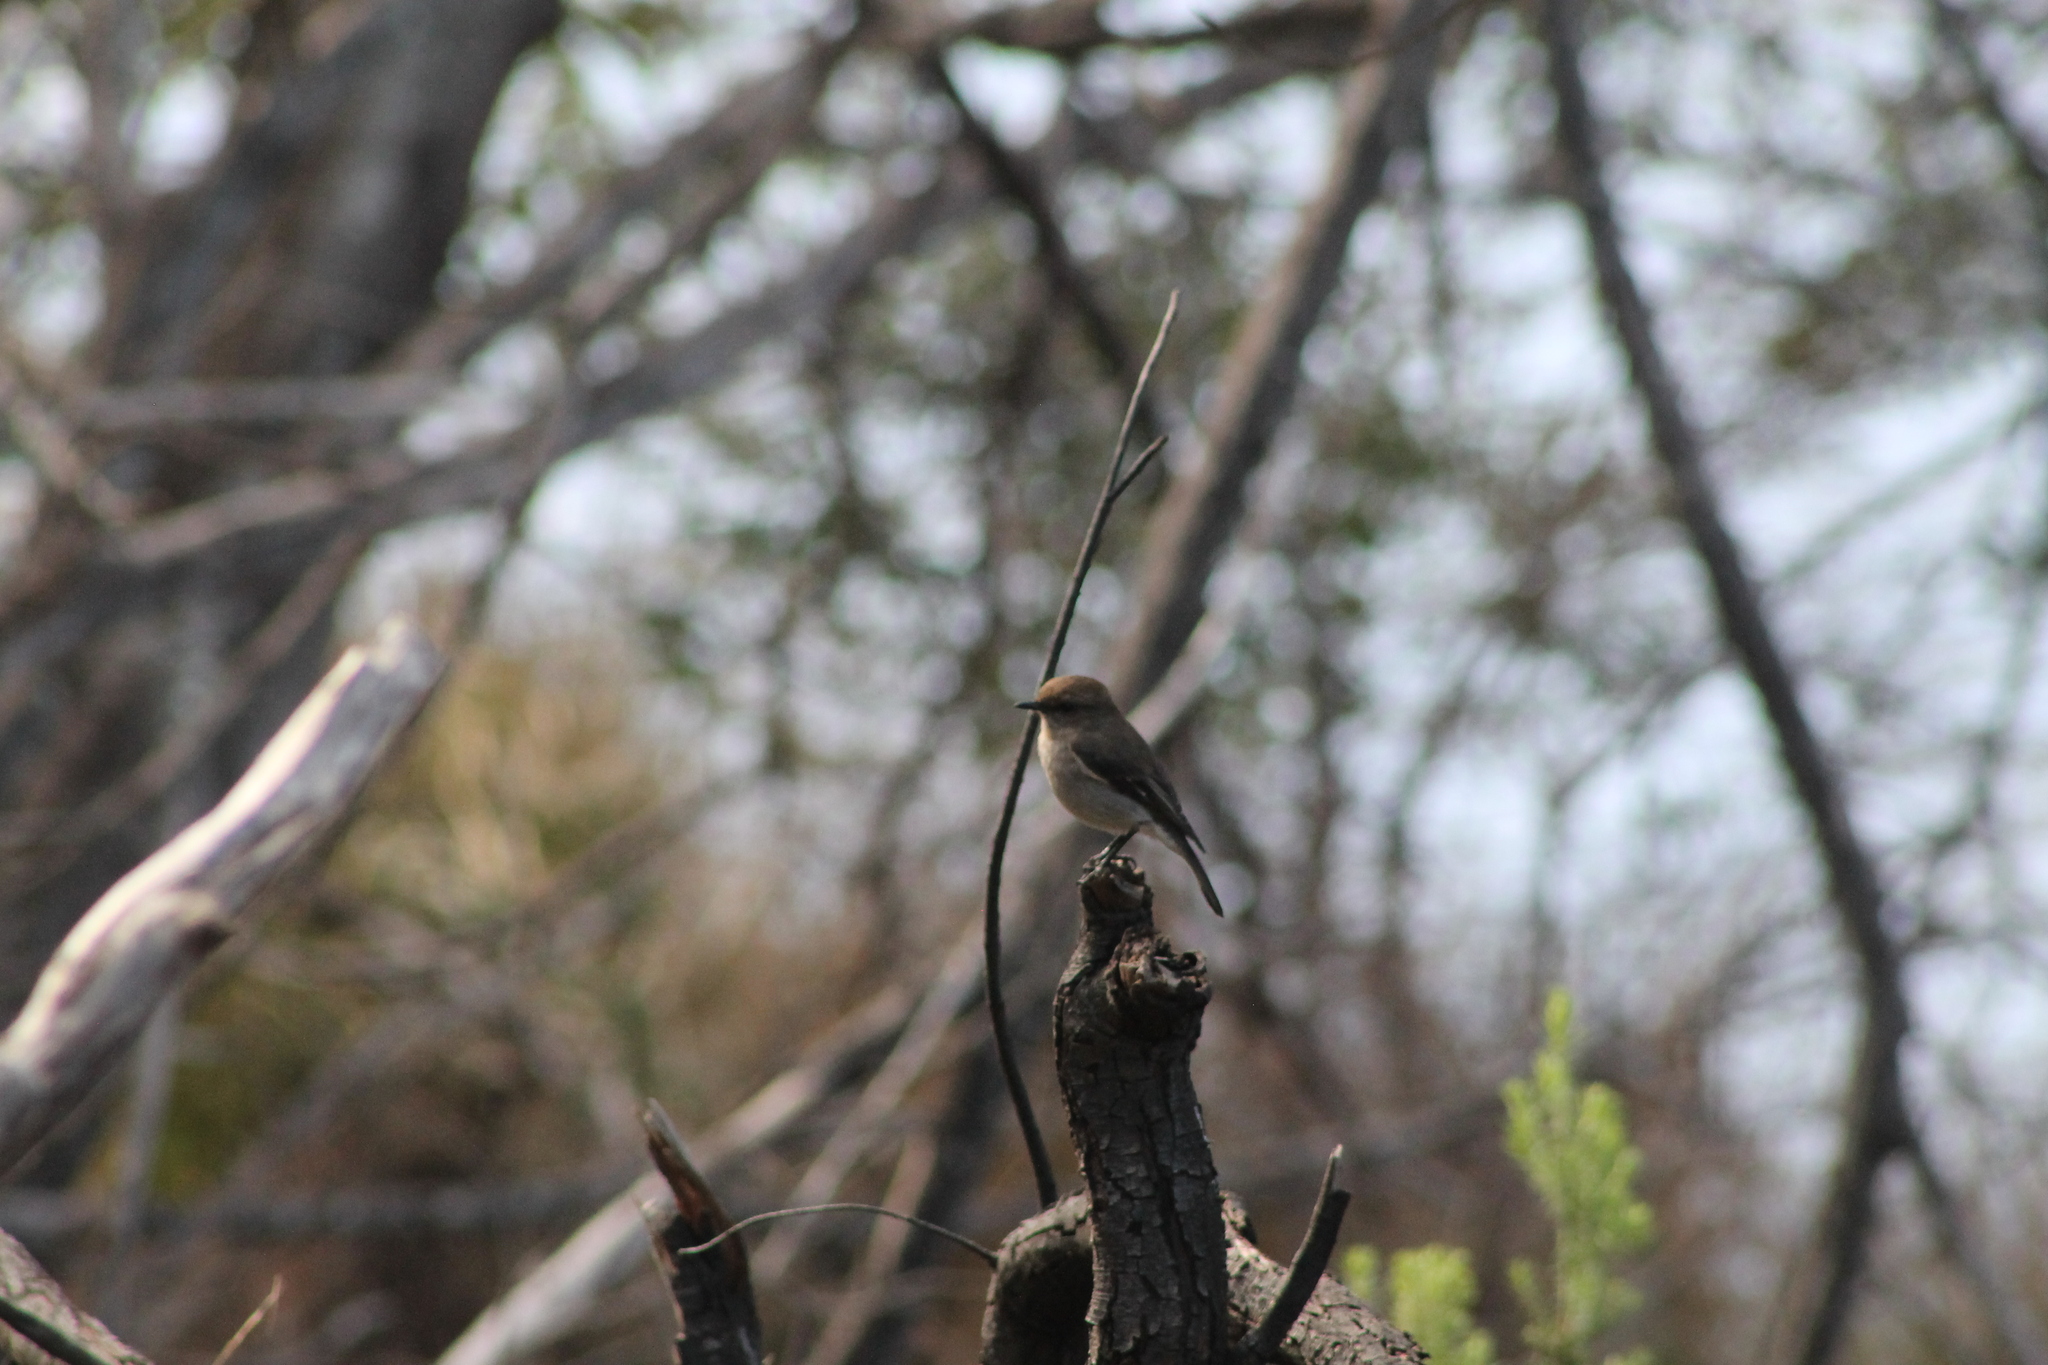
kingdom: Animalia
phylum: Chordata
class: Aves
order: Passeriformes
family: Petroicidae
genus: Melanodryas
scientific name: Melanodryas vittata
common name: Dusky robin
